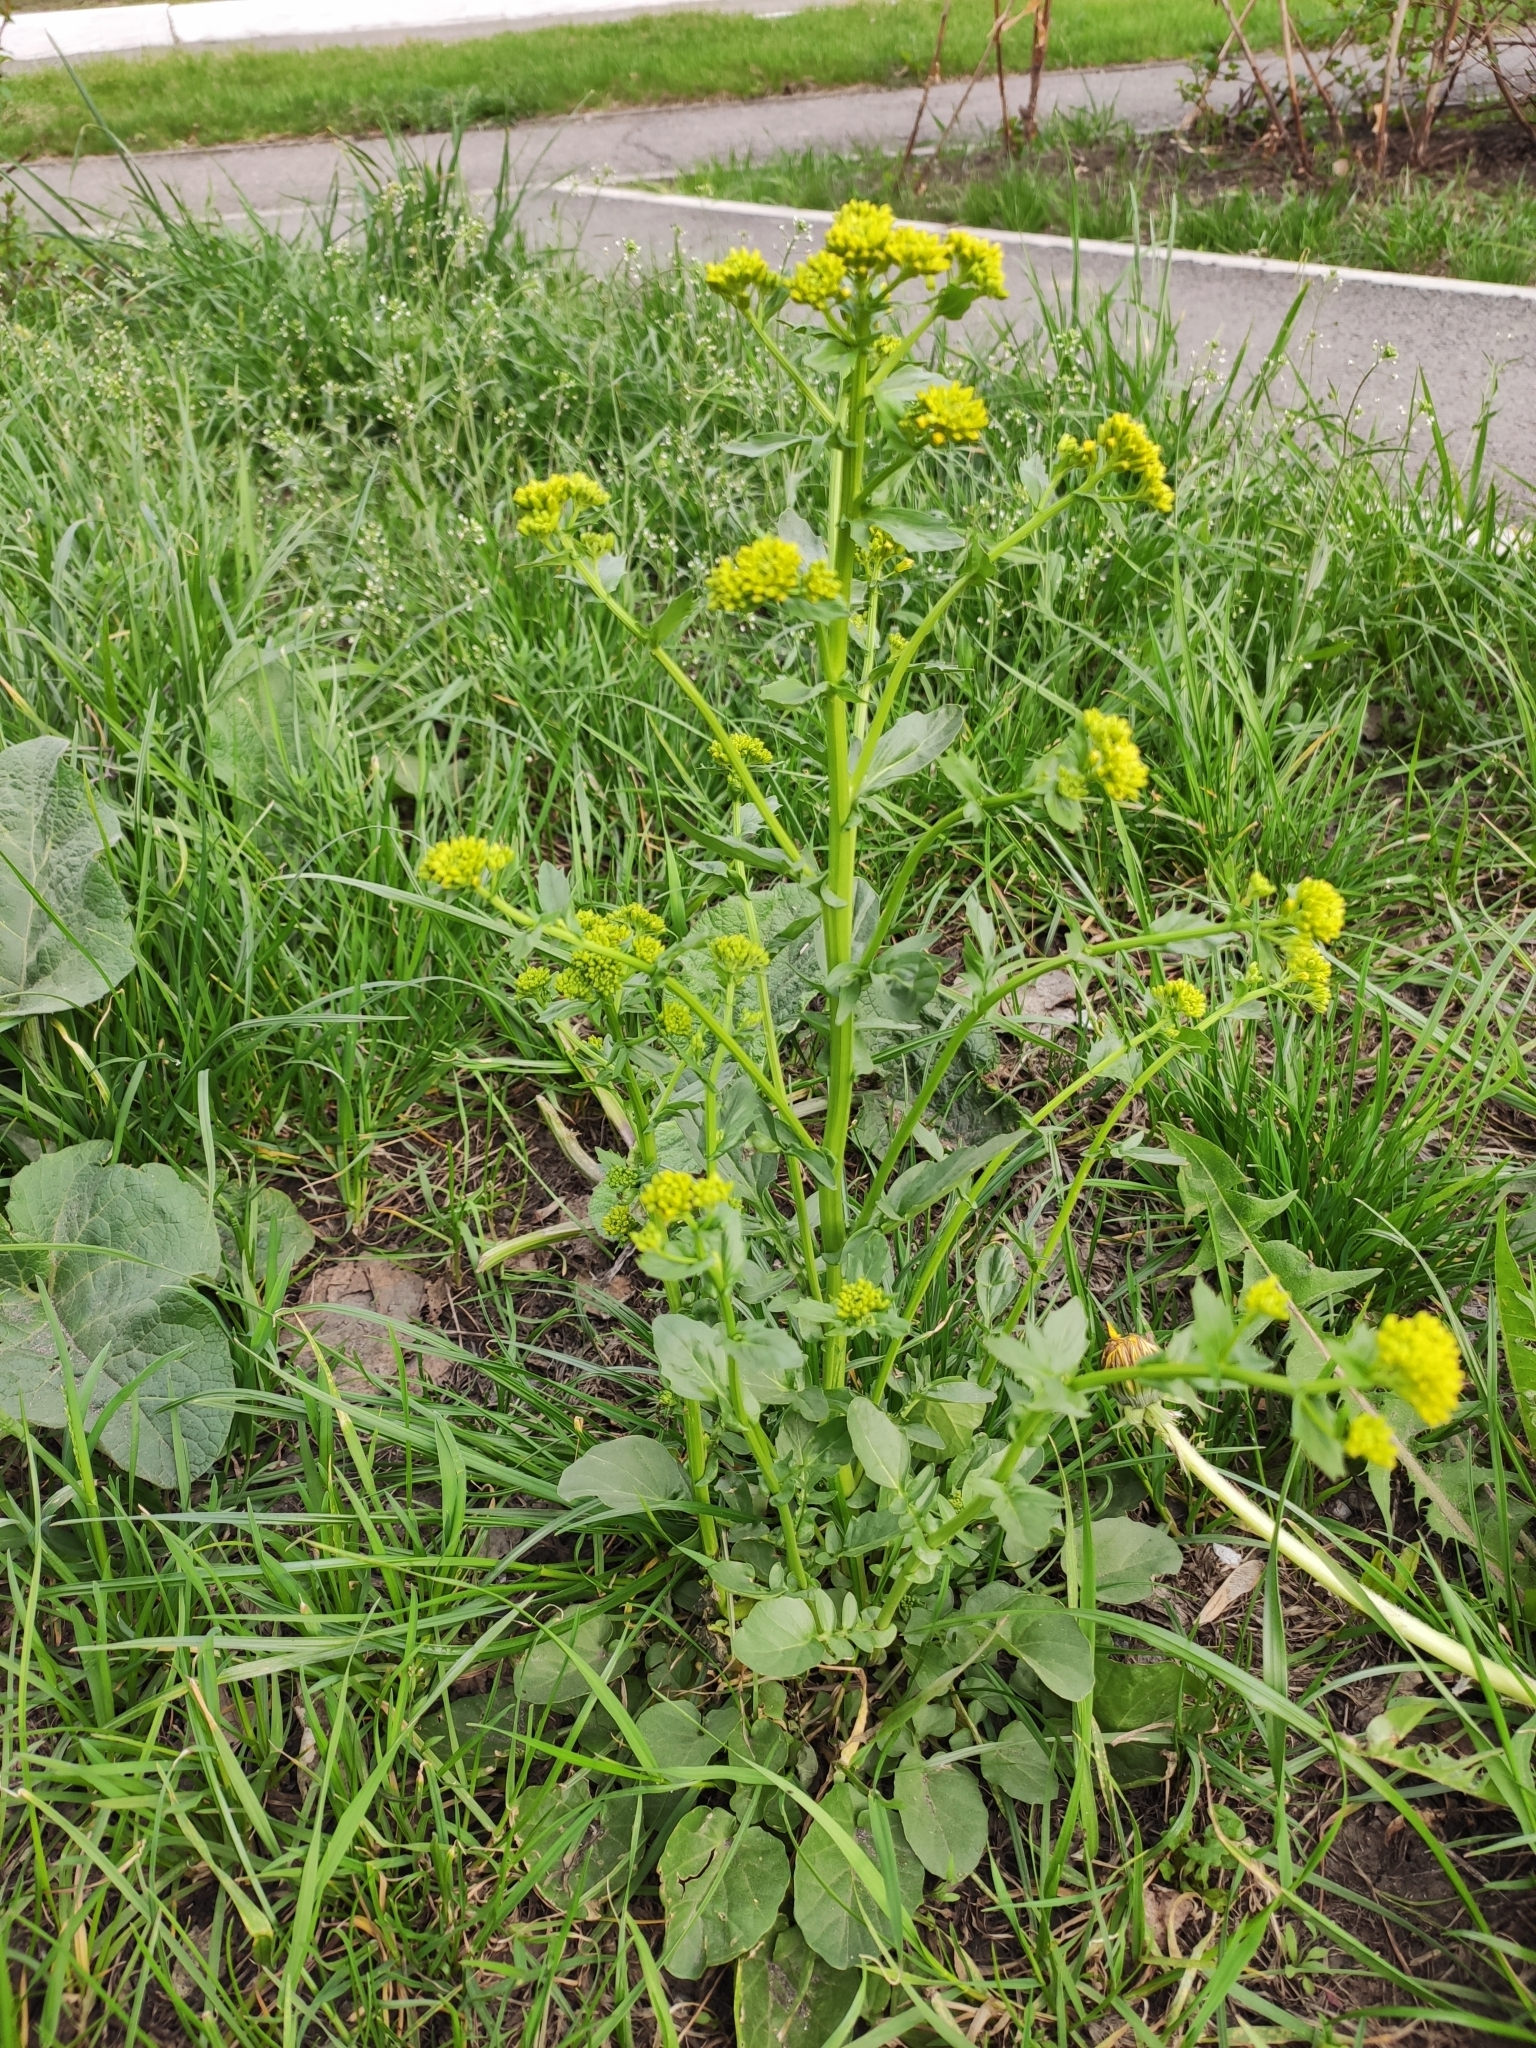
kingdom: Plantae
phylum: Tracheophyta
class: Magnoliopsida
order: Brassicales
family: Brassicaceae
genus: Barbarea
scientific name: Barbarea vulgaris
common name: Cressy-greens
